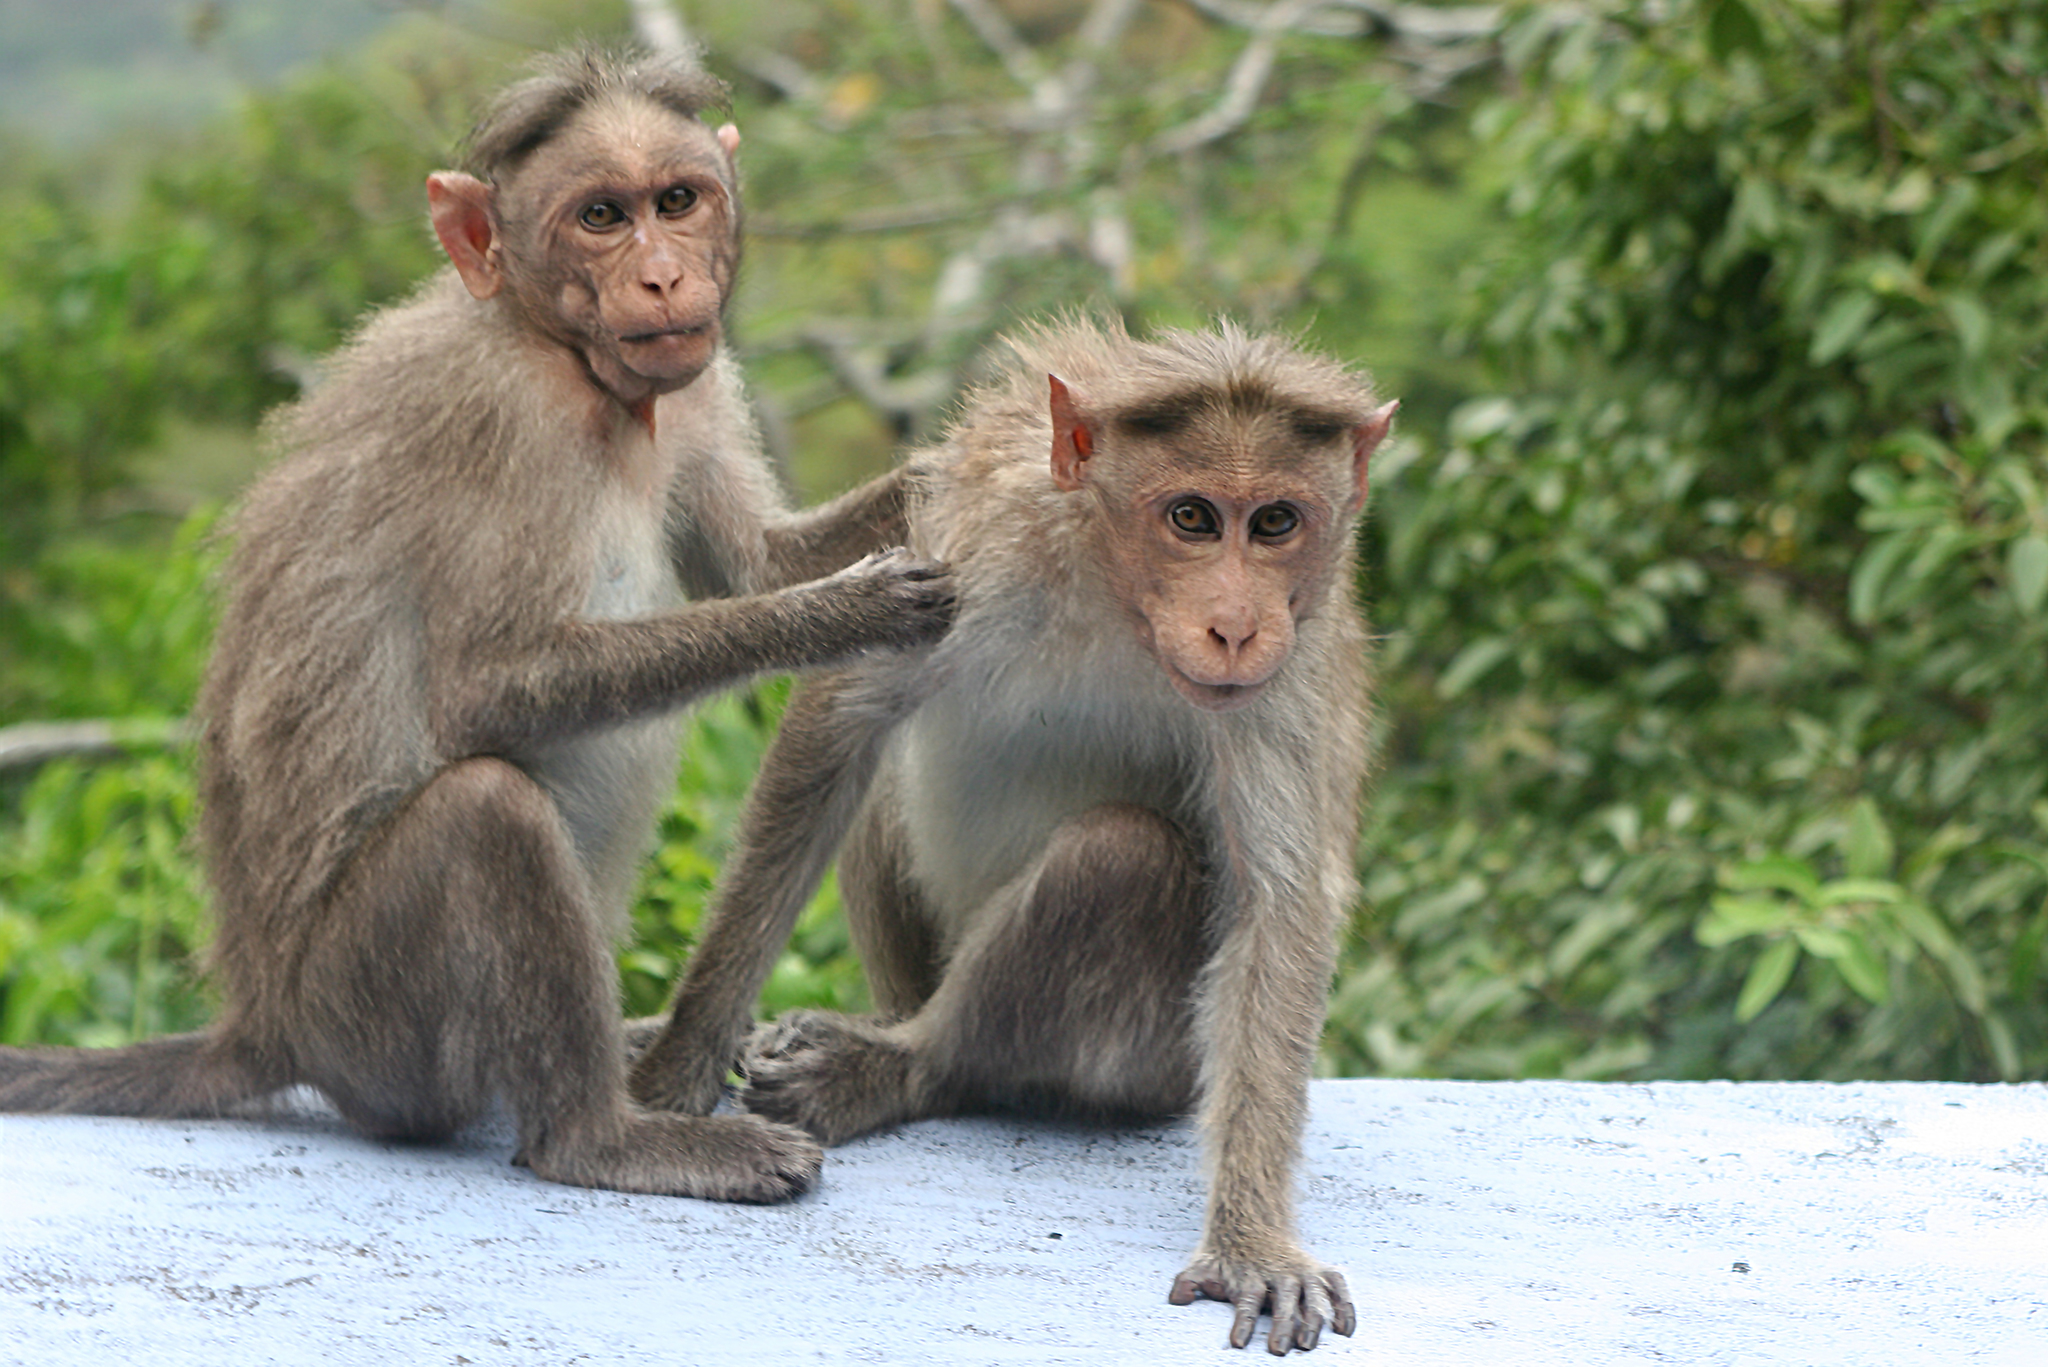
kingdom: Animalia
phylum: Chordata
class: Mammalia
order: Primates
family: Cercopithecidae
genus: Macaca
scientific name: Macaca radiata
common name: Bonnet macaque
